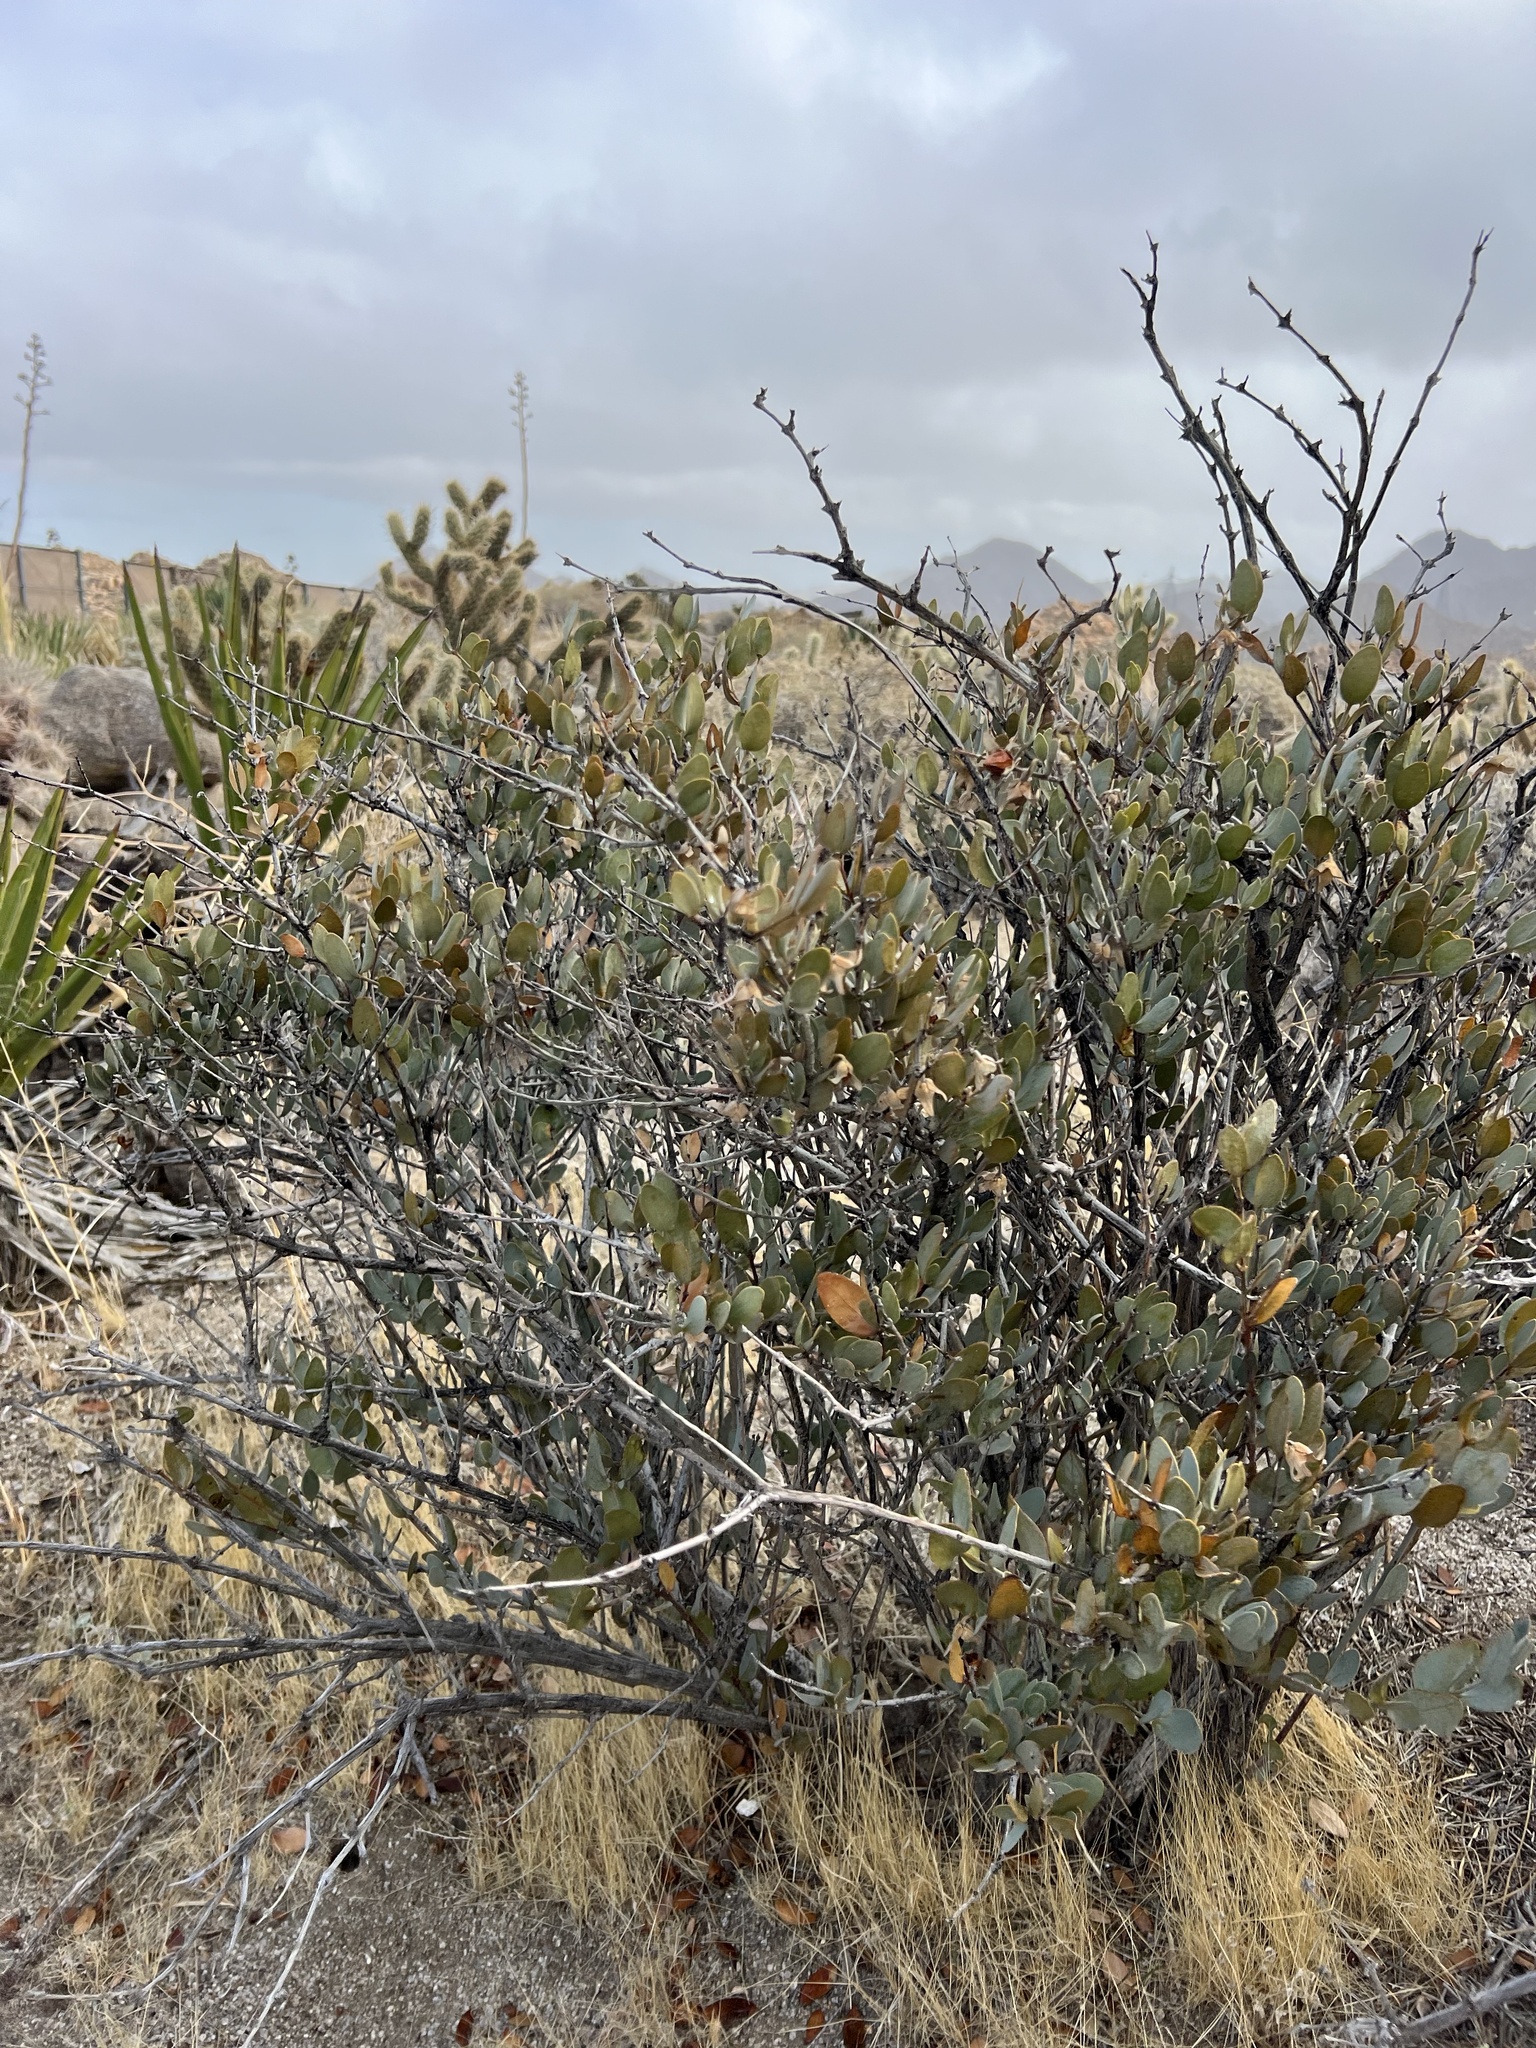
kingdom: Plantae
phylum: Tracheophyta
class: Magnoliopsida
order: Caryophyllales
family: Simmondsiaceae
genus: Simmondsia
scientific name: Simmondsia chinensis
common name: Jojoba
